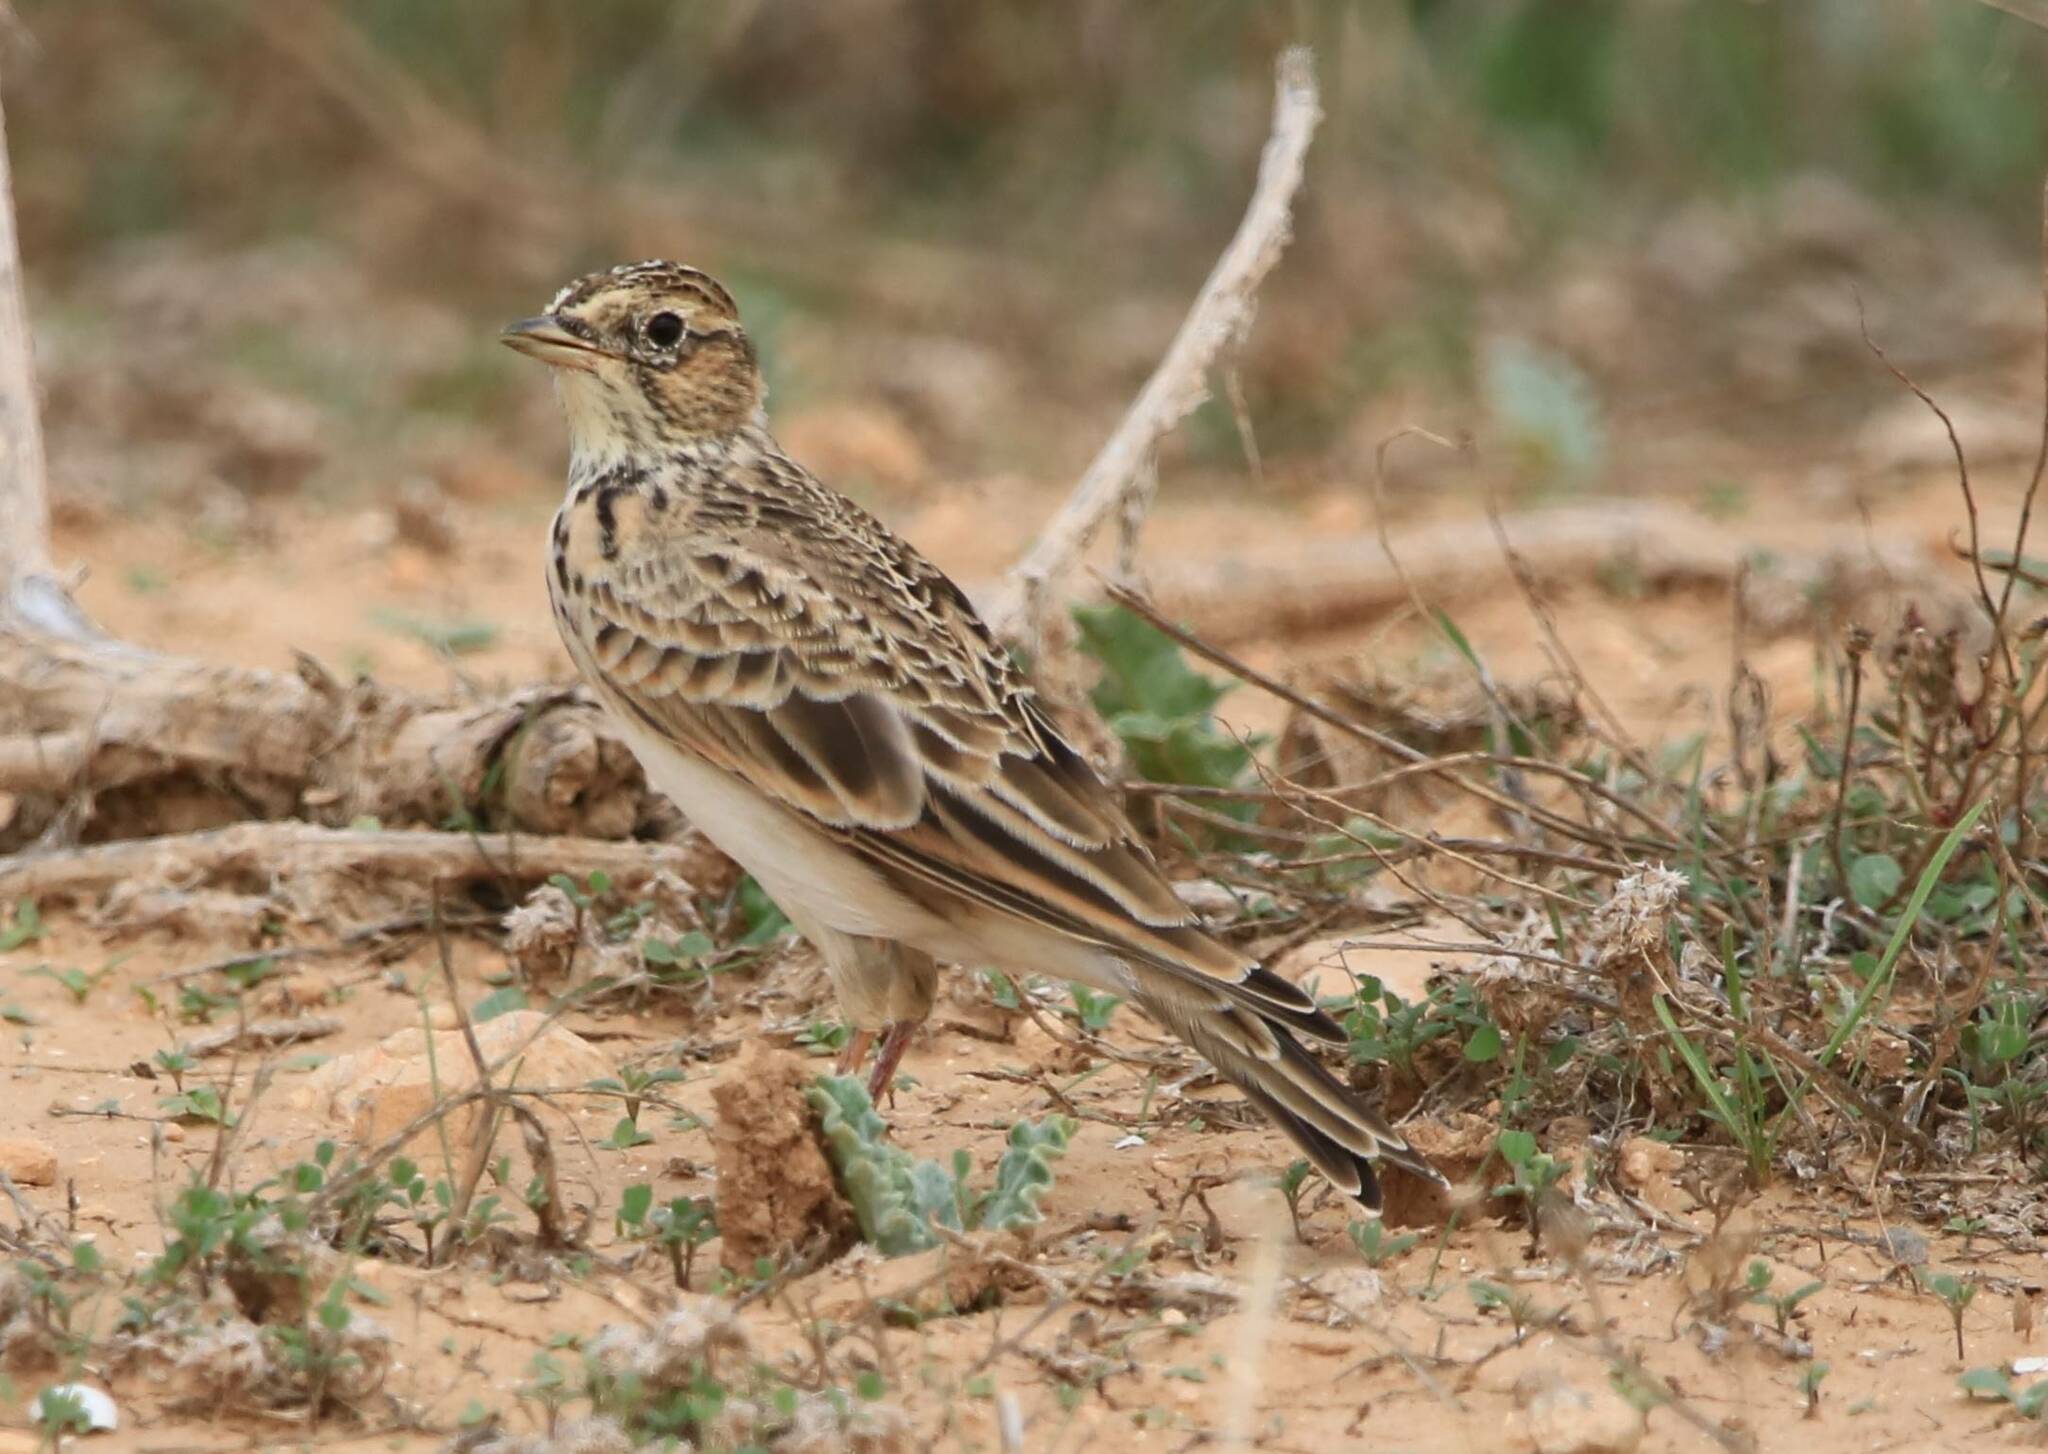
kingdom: Animalia
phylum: Chordata
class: Aves
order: Passeriformes
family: Alaudidae
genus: Alauda
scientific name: Alauda arvensis
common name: Eurasian skylark
